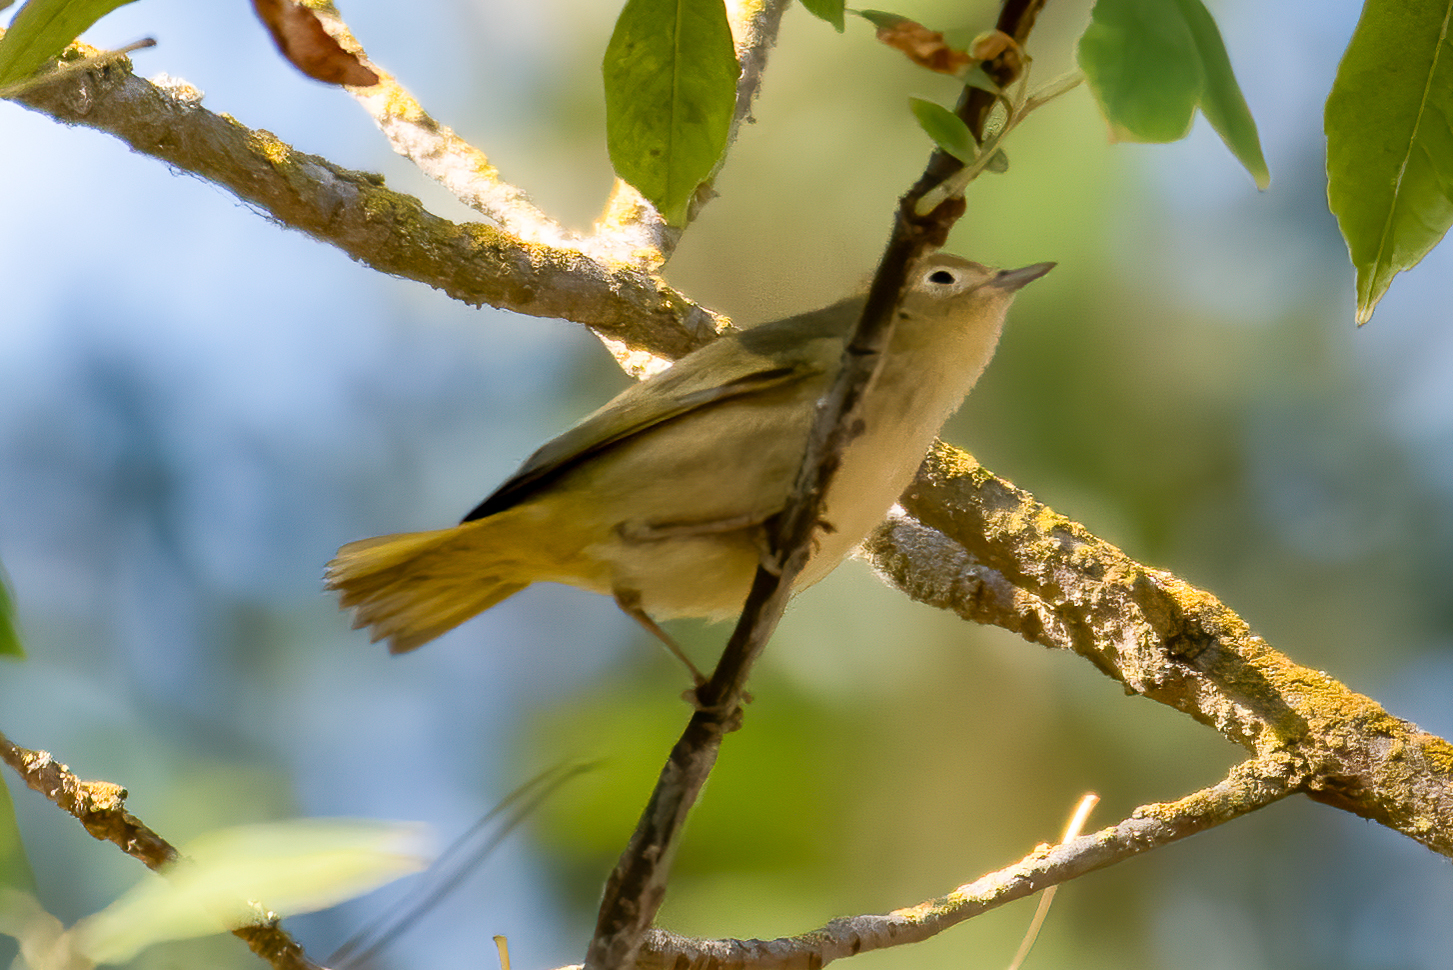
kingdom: Animalia
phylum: Chordata
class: Aves
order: Passeriformes
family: Parulidae
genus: Setophaga
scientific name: Setophaga petechia
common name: Yellow warbler
